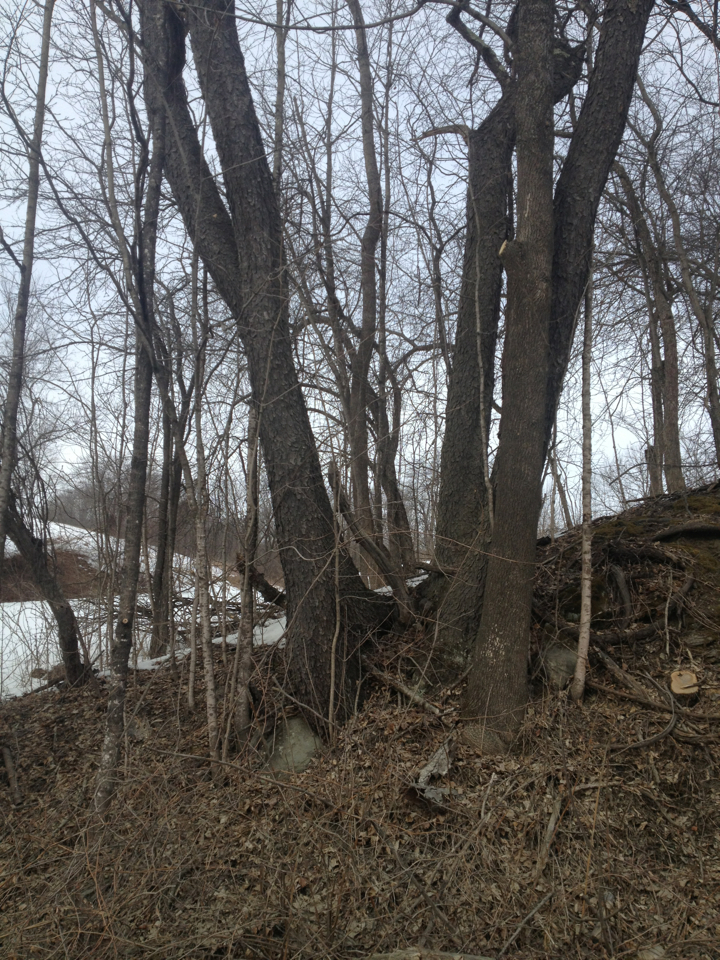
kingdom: Plantae
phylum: Tracheophyta
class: Magnoliopsida
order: Rosales
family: Rosaceae
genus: Prunus
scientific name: Prunus serotina
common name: Black cherry
